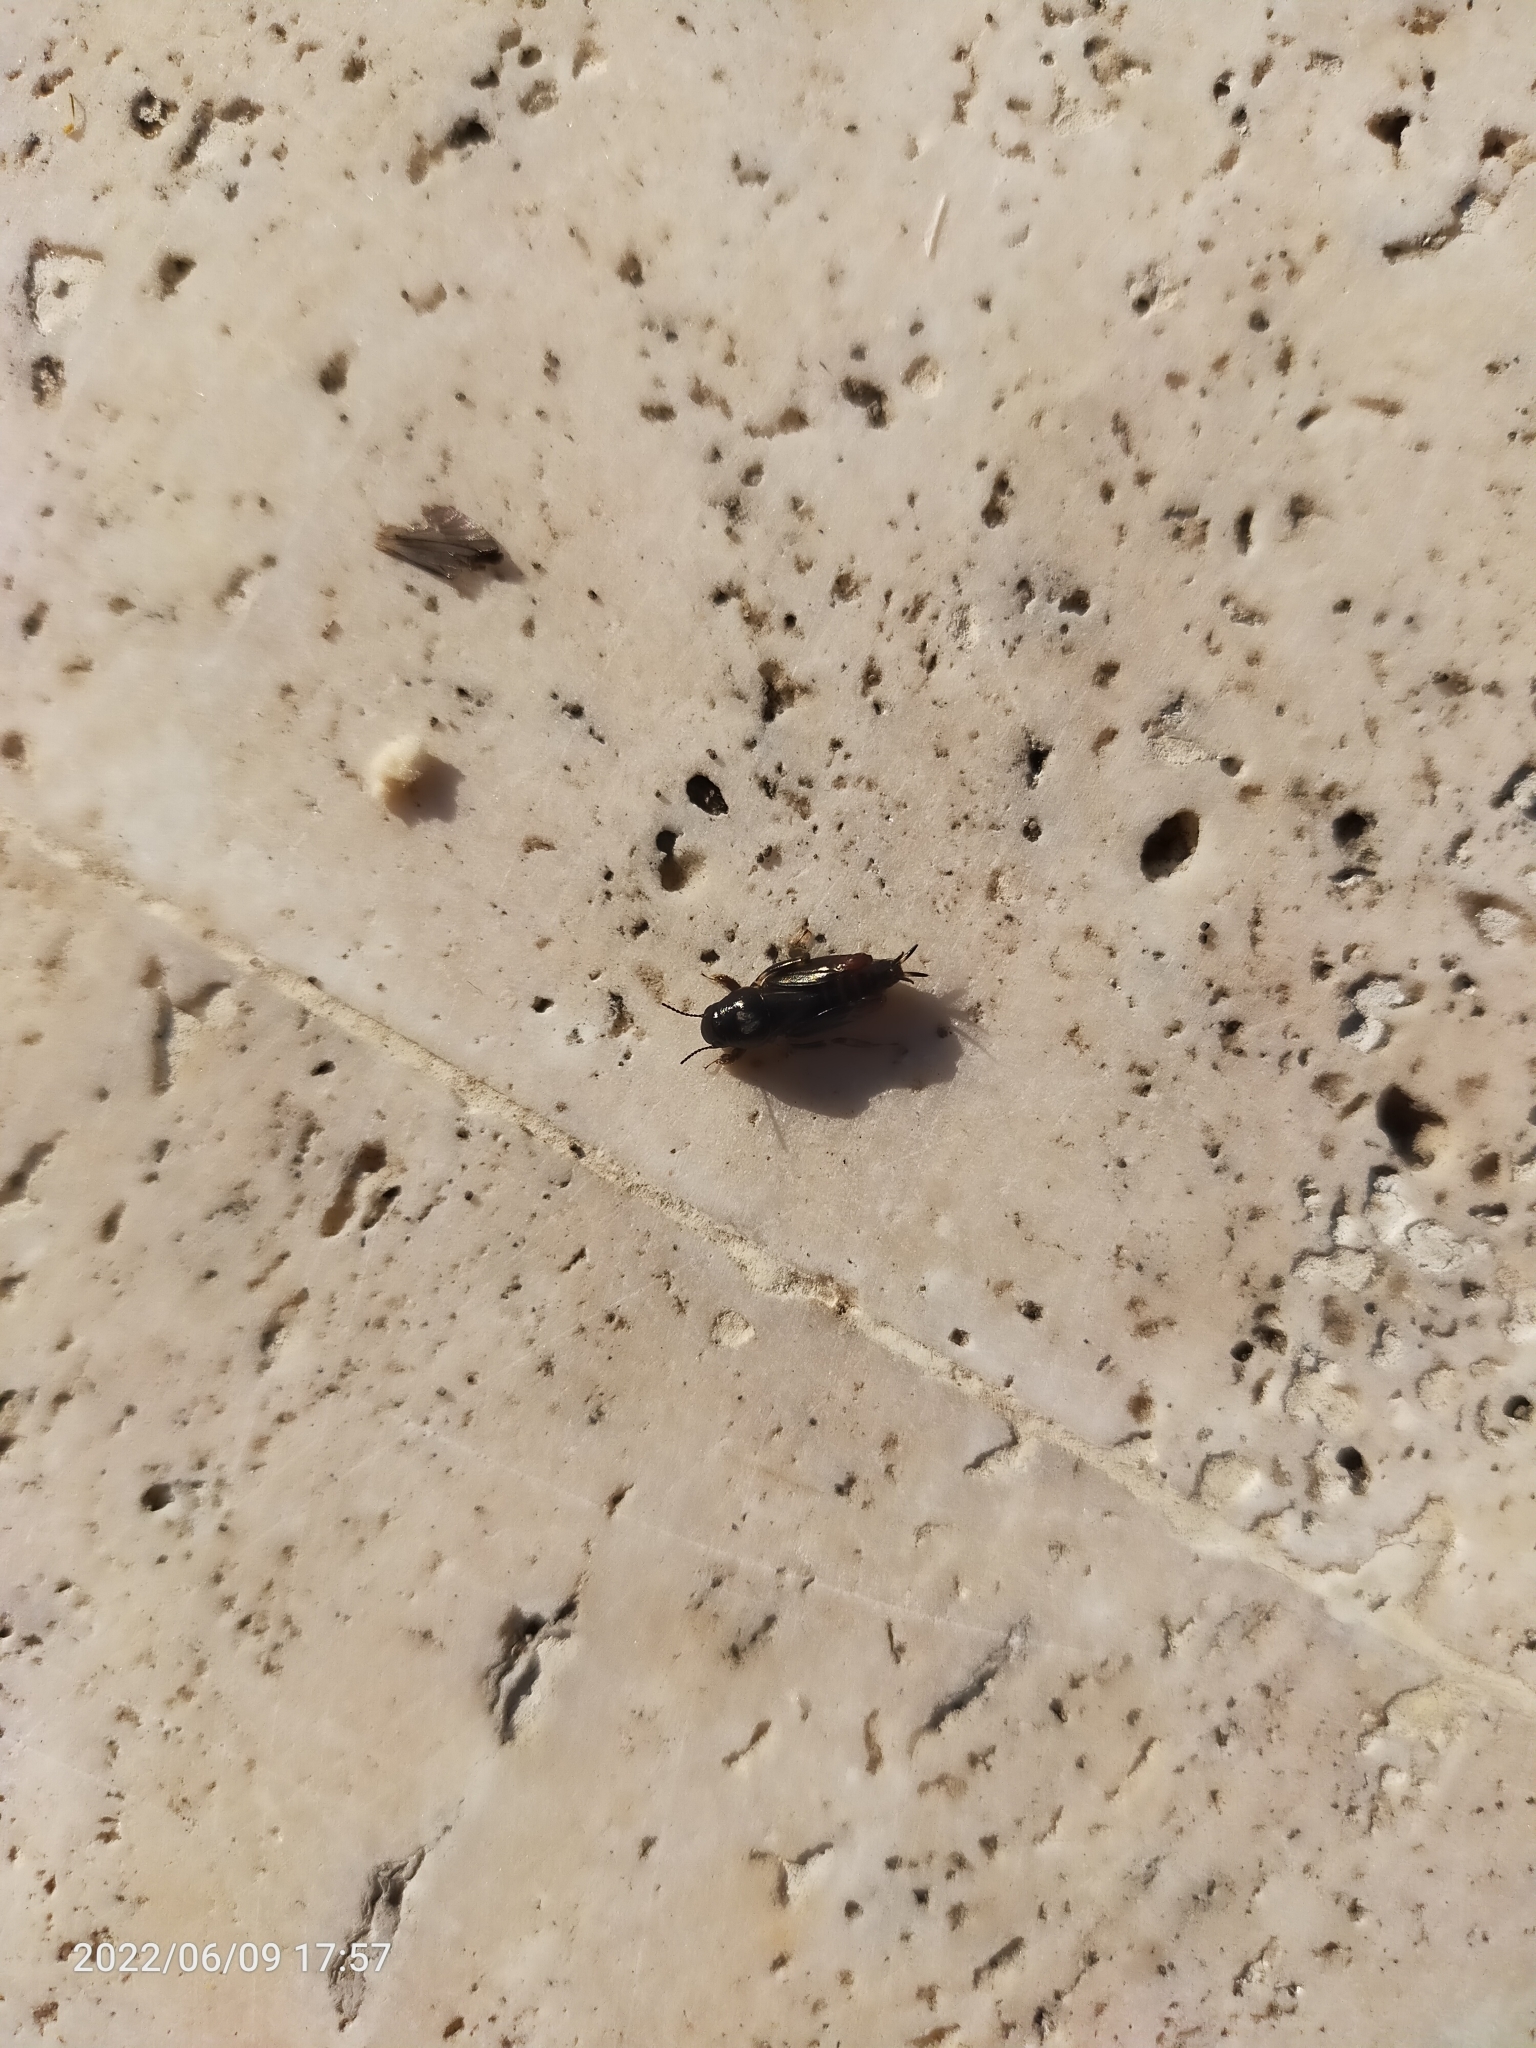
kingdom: Animalia
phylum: Arthropoda
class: Insecta
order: Orthoptera
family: Tridactylidae
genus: Xya
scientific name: Xya pfaendleri
